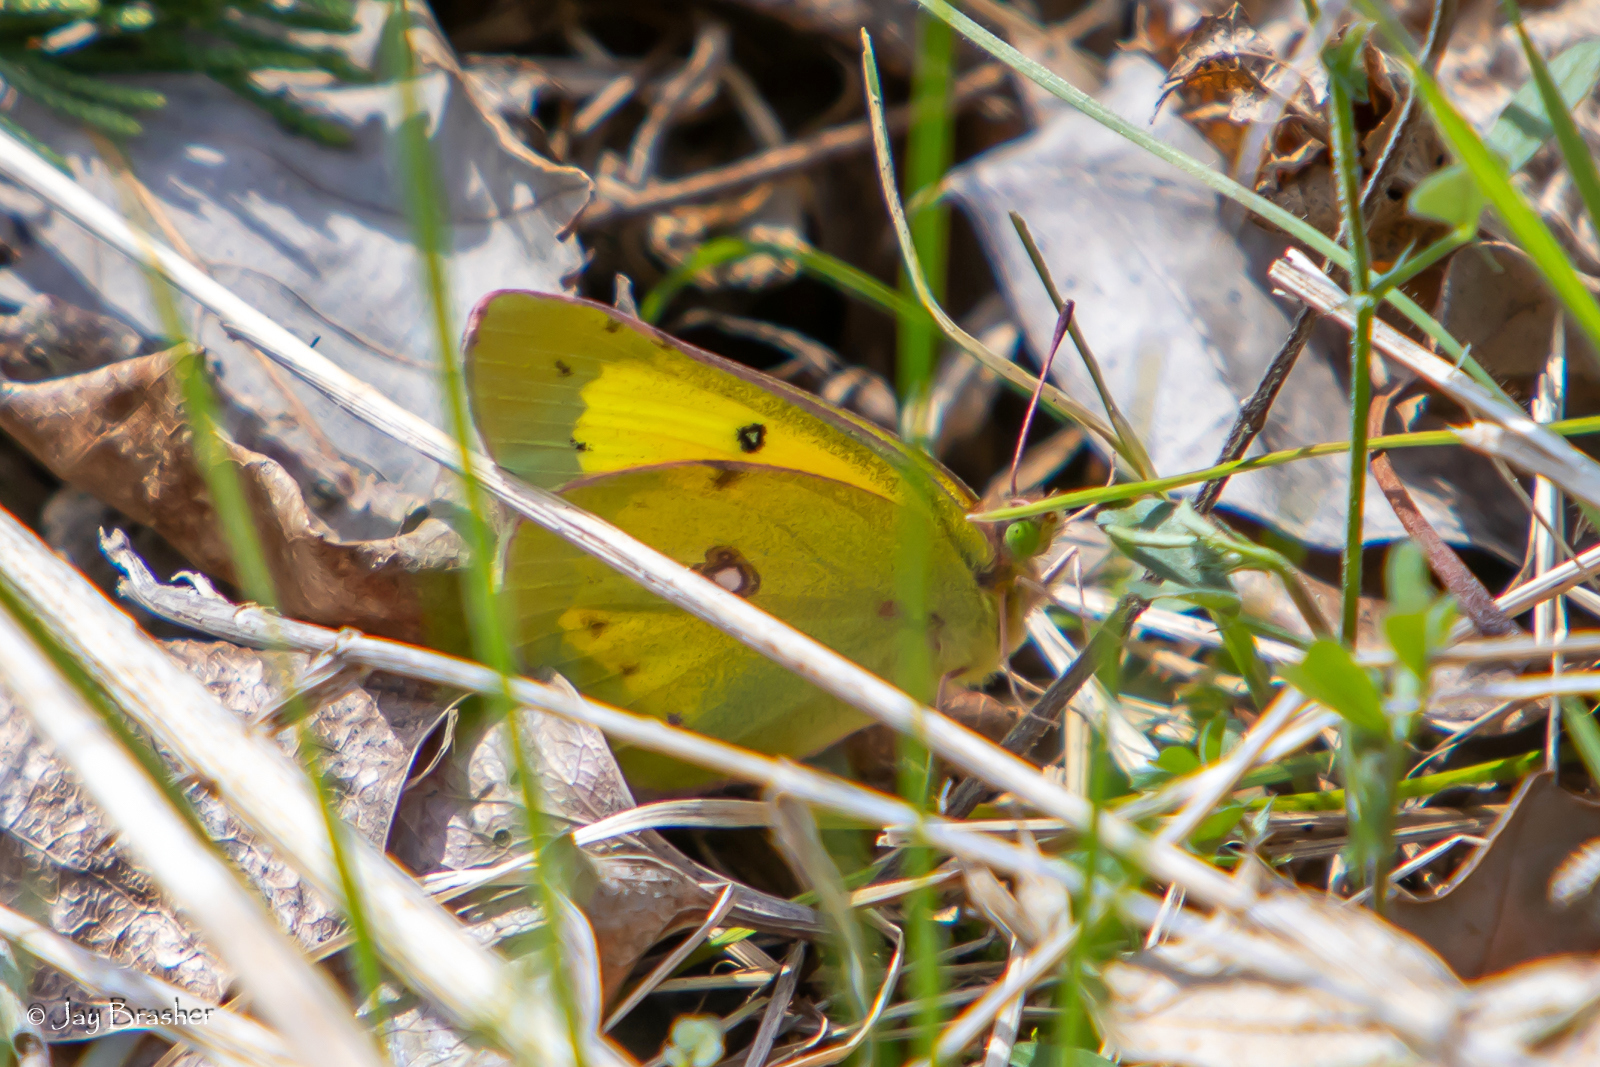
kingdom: Animalia
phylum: Arthropoda
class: Insecta
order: Lepidoptera
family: Pieridae
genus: Colias
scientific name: Colias eurytheme
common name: Alfalfa butterfly
